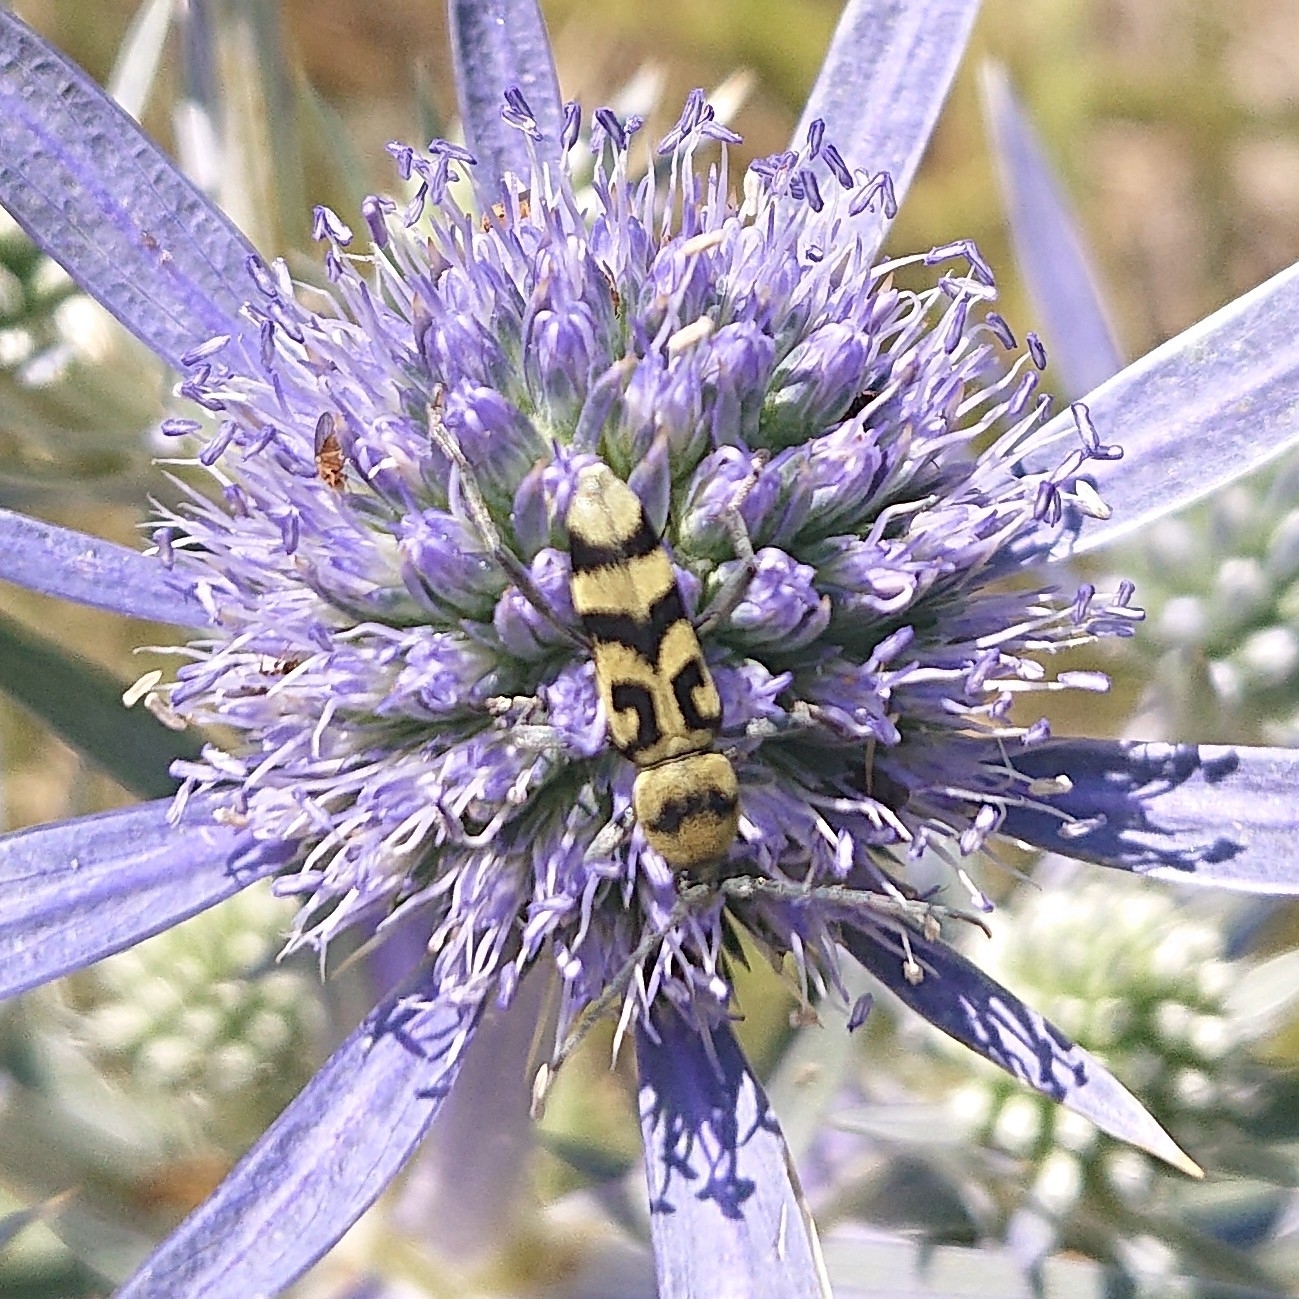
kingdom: Animalia
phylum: Arthropoda
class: Insecta
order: Coleoptera
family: Cerambycidae
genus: Chlorophorus
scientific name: Chlorophorus varius
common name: Grape wood borer
